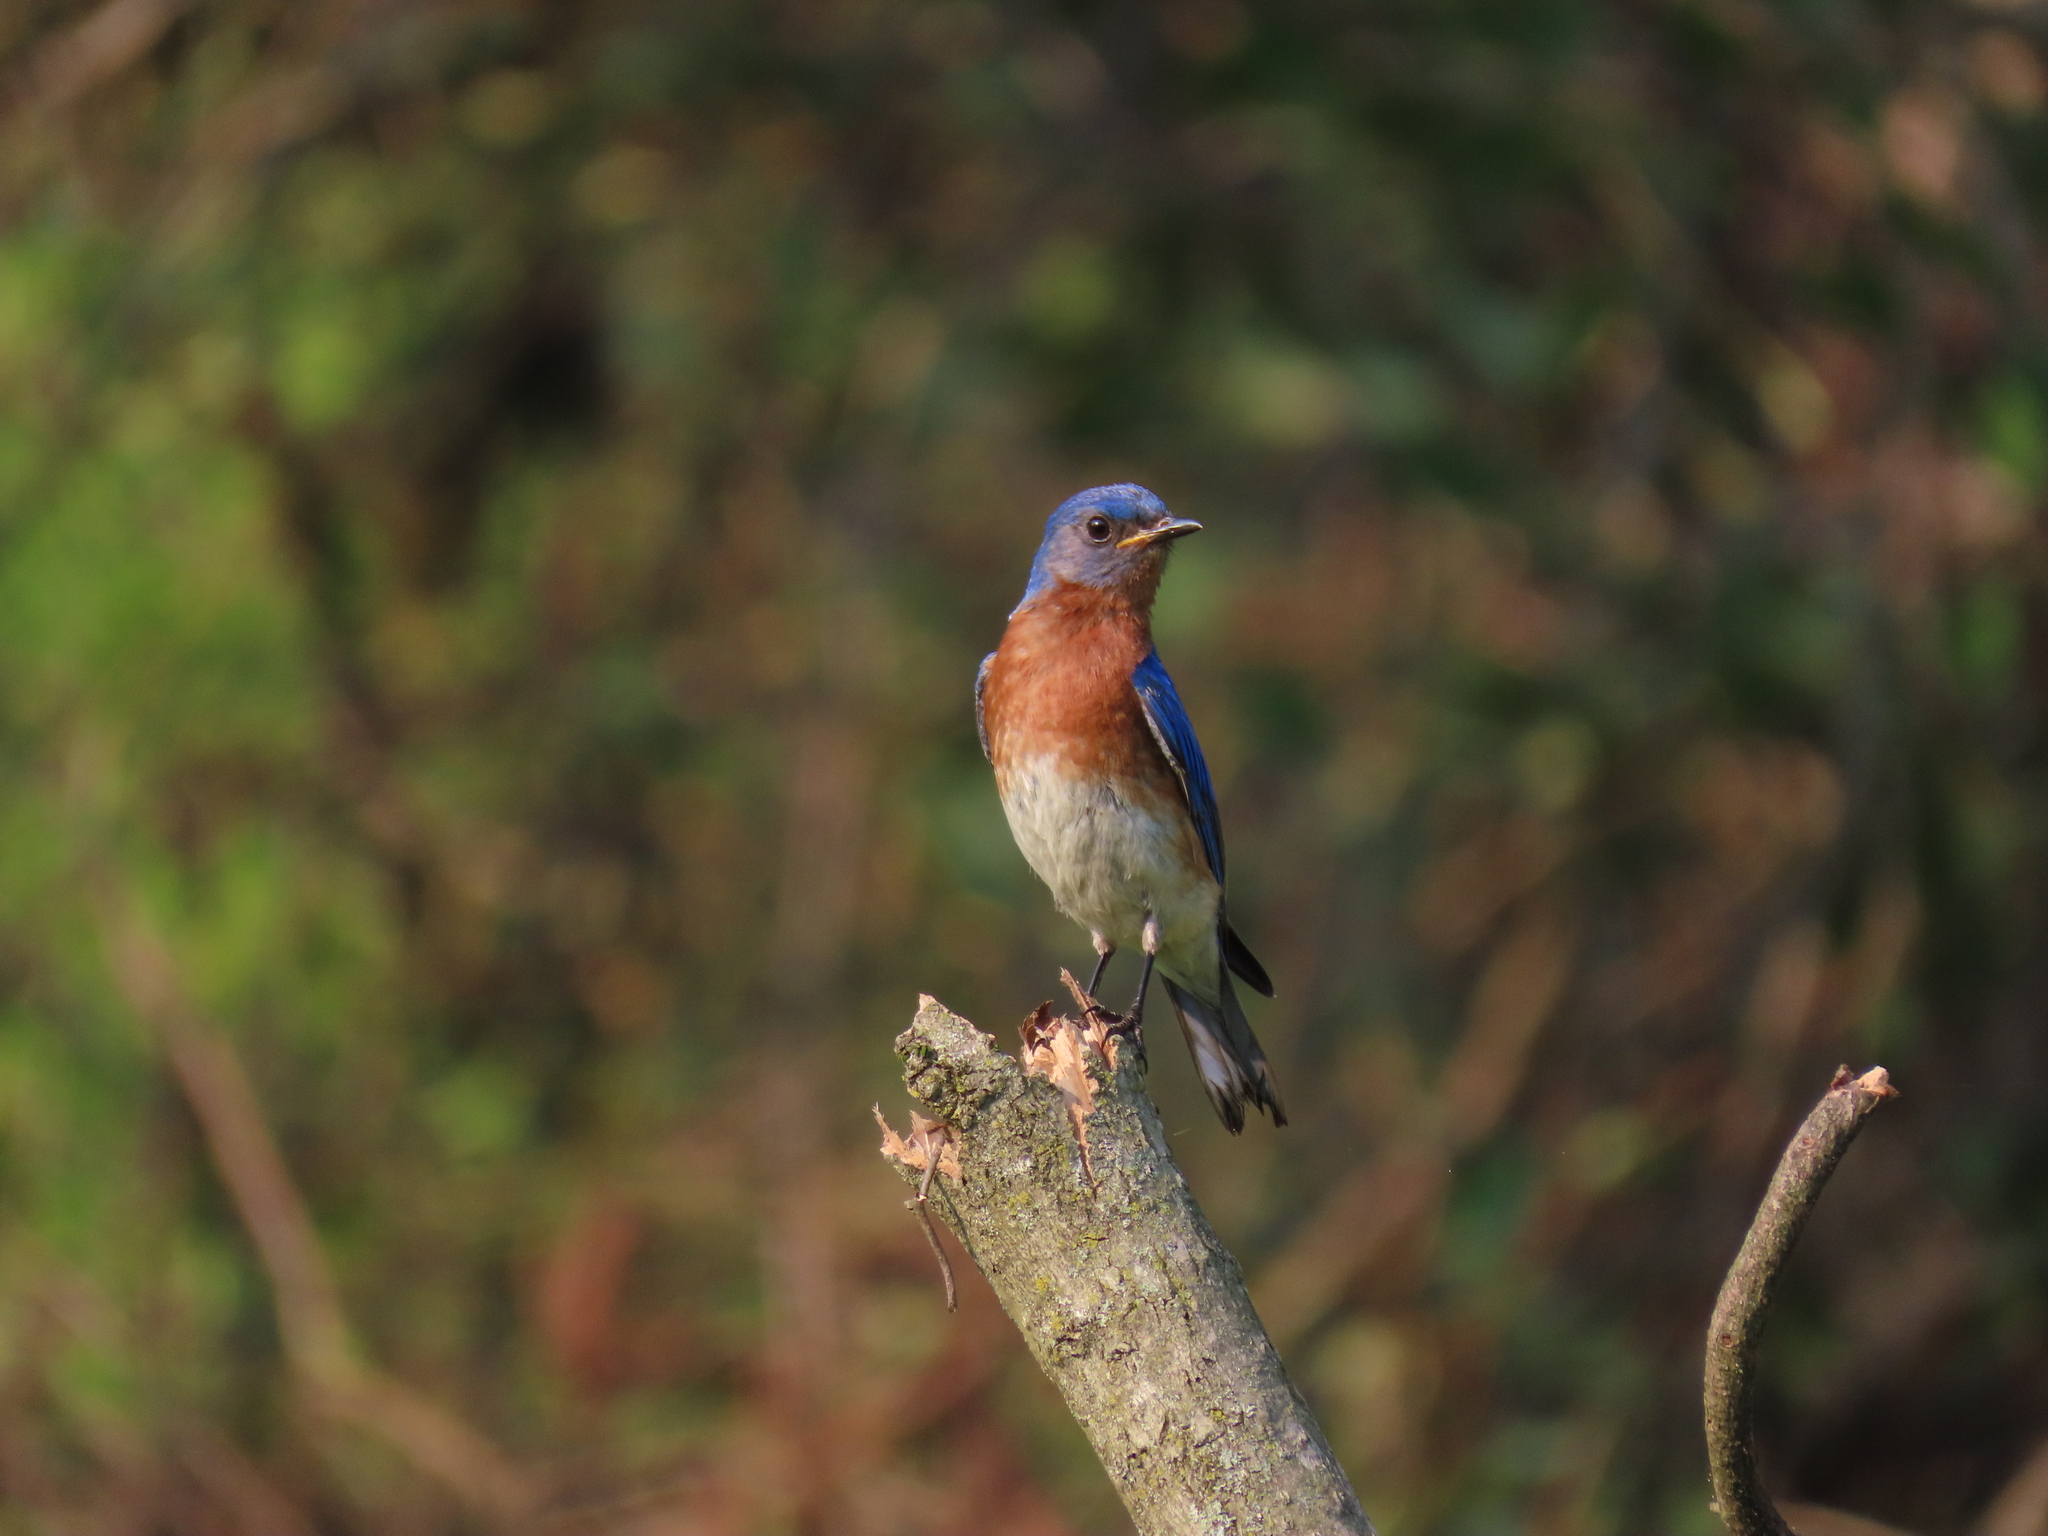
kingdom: Animalia
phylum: Chordata
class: Aves
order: Passeriformes
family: Turdidae
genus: Sialia
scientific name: Sialia sialis
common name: Eastern bluebird
